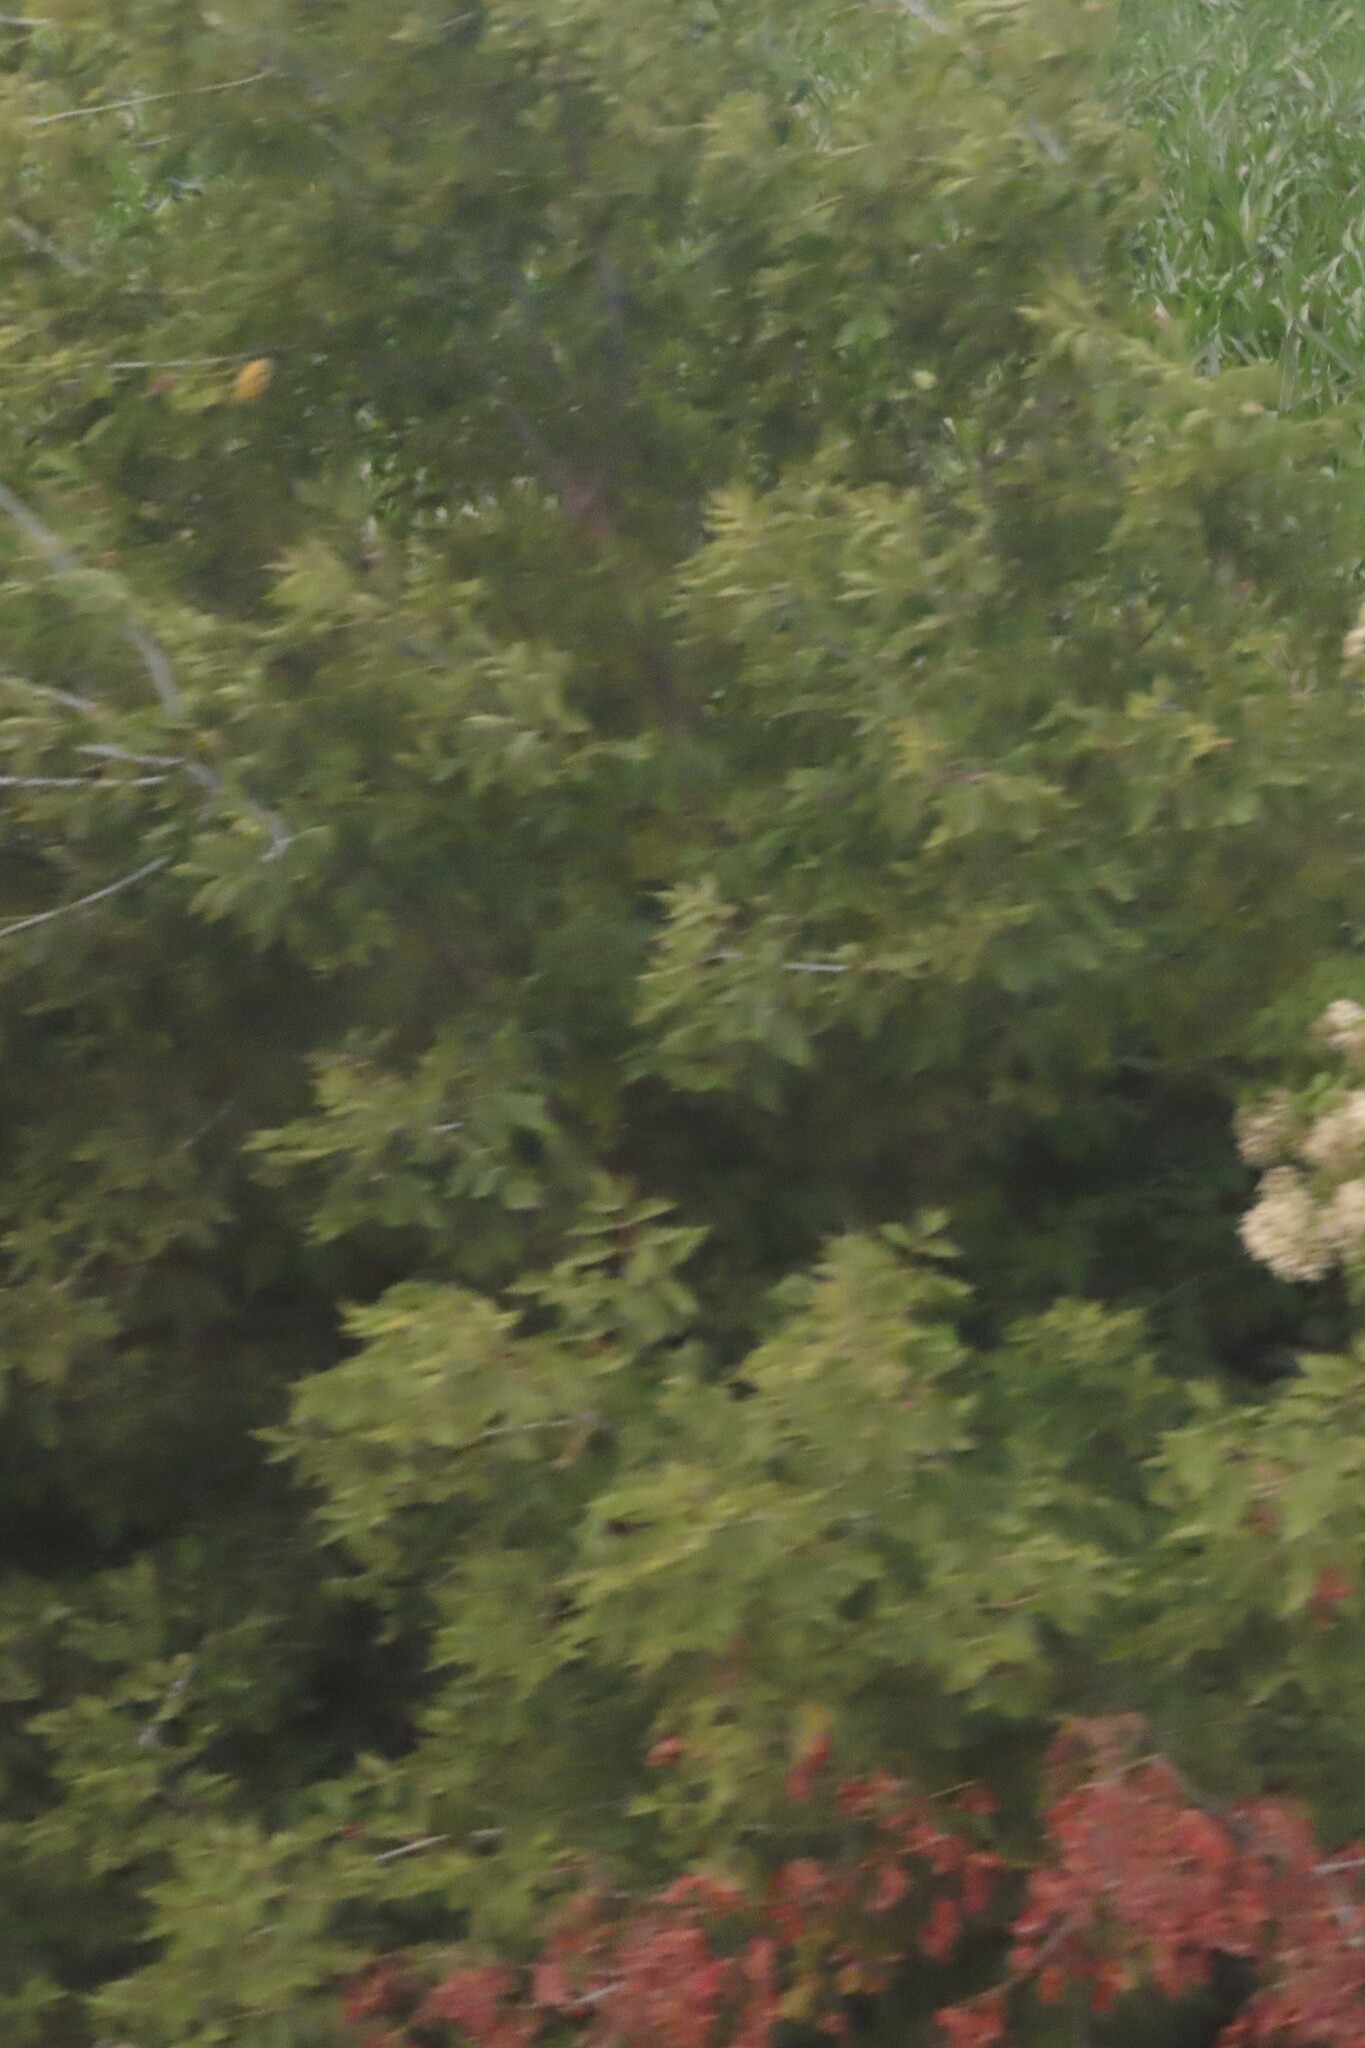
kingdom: Plantae
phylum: Tracheophyta
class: Magnoliopsida
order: Sapindales
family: Sapindaceae
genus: Acer
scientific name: Acer negundo
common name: Ashleaf maple
